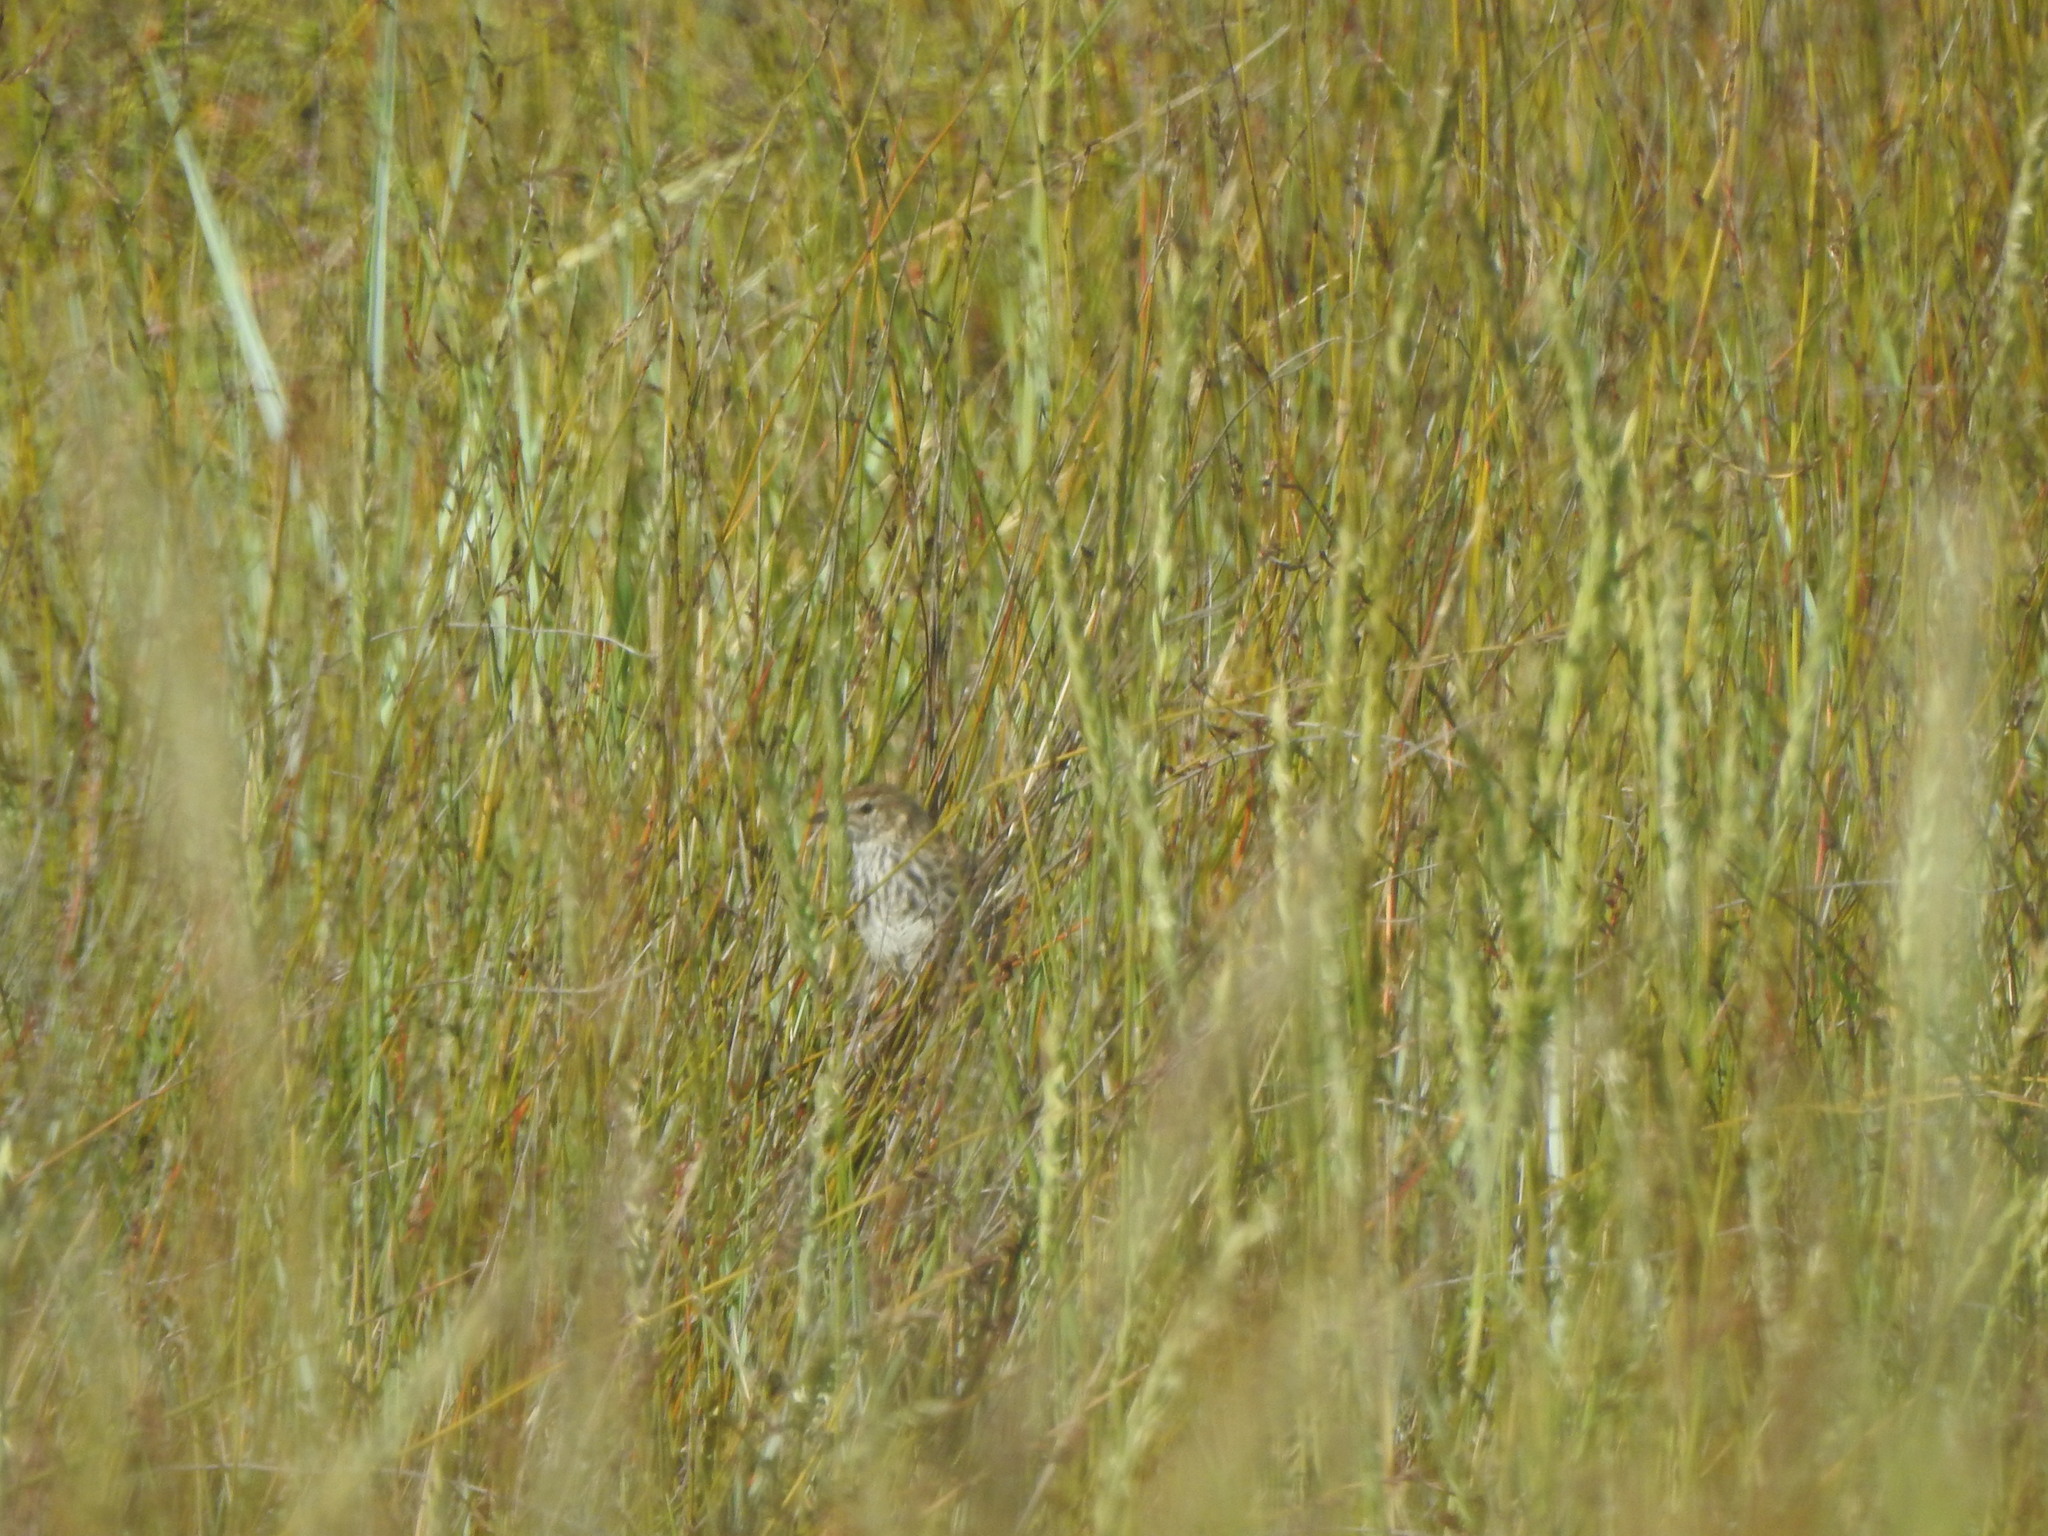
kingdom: Animalia
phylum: Chordata
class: Aves
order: Passeriformes
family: Locustellidae
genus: Megalurus
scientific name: Megalurus punctatus
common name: New zealand fernbird
